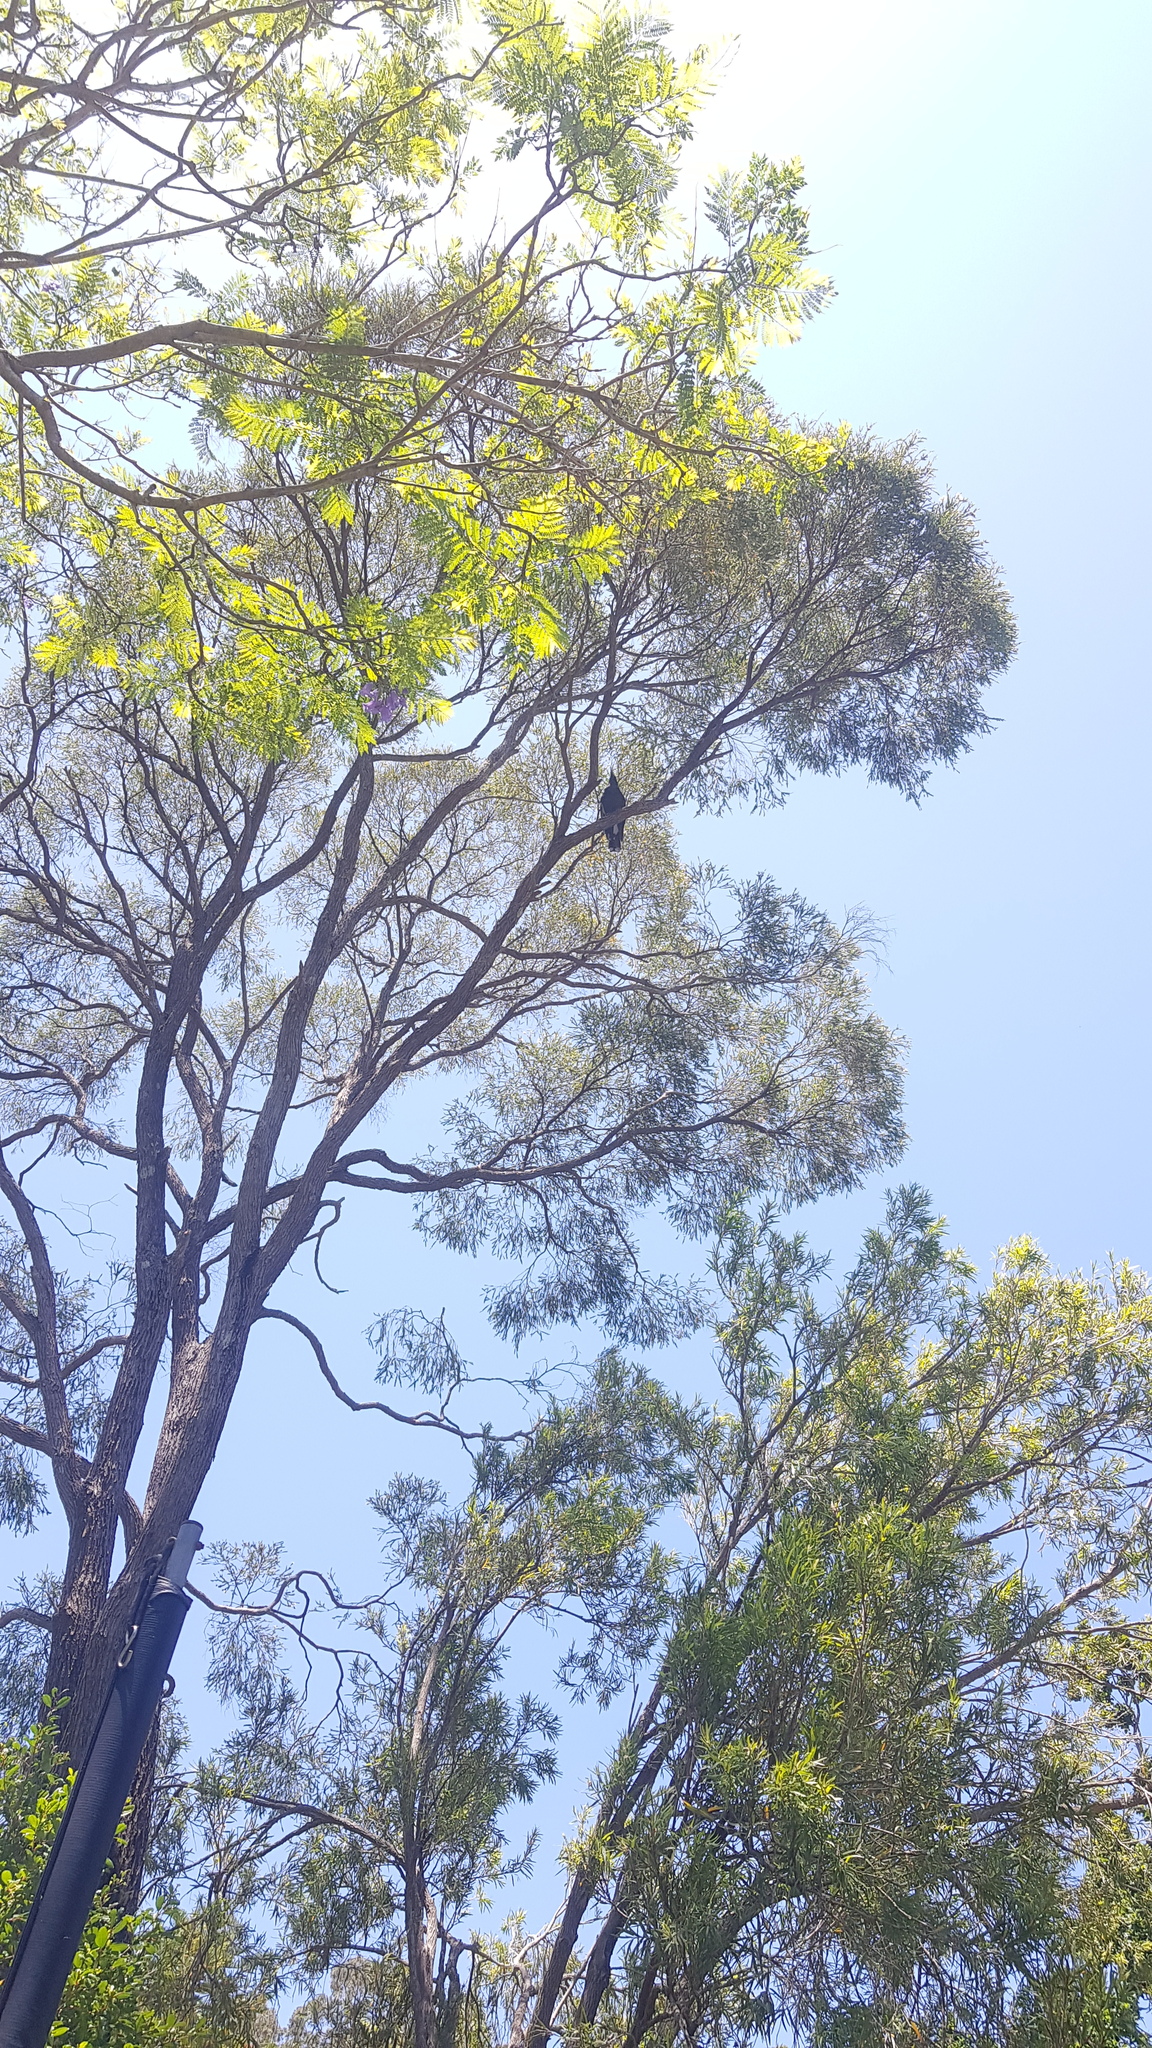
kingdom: Animalia
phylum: Chordata
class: Aves
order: Passeriformes
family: Cracticidae
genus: Strepera
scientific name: Strepera graculina
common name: Pied currawong
